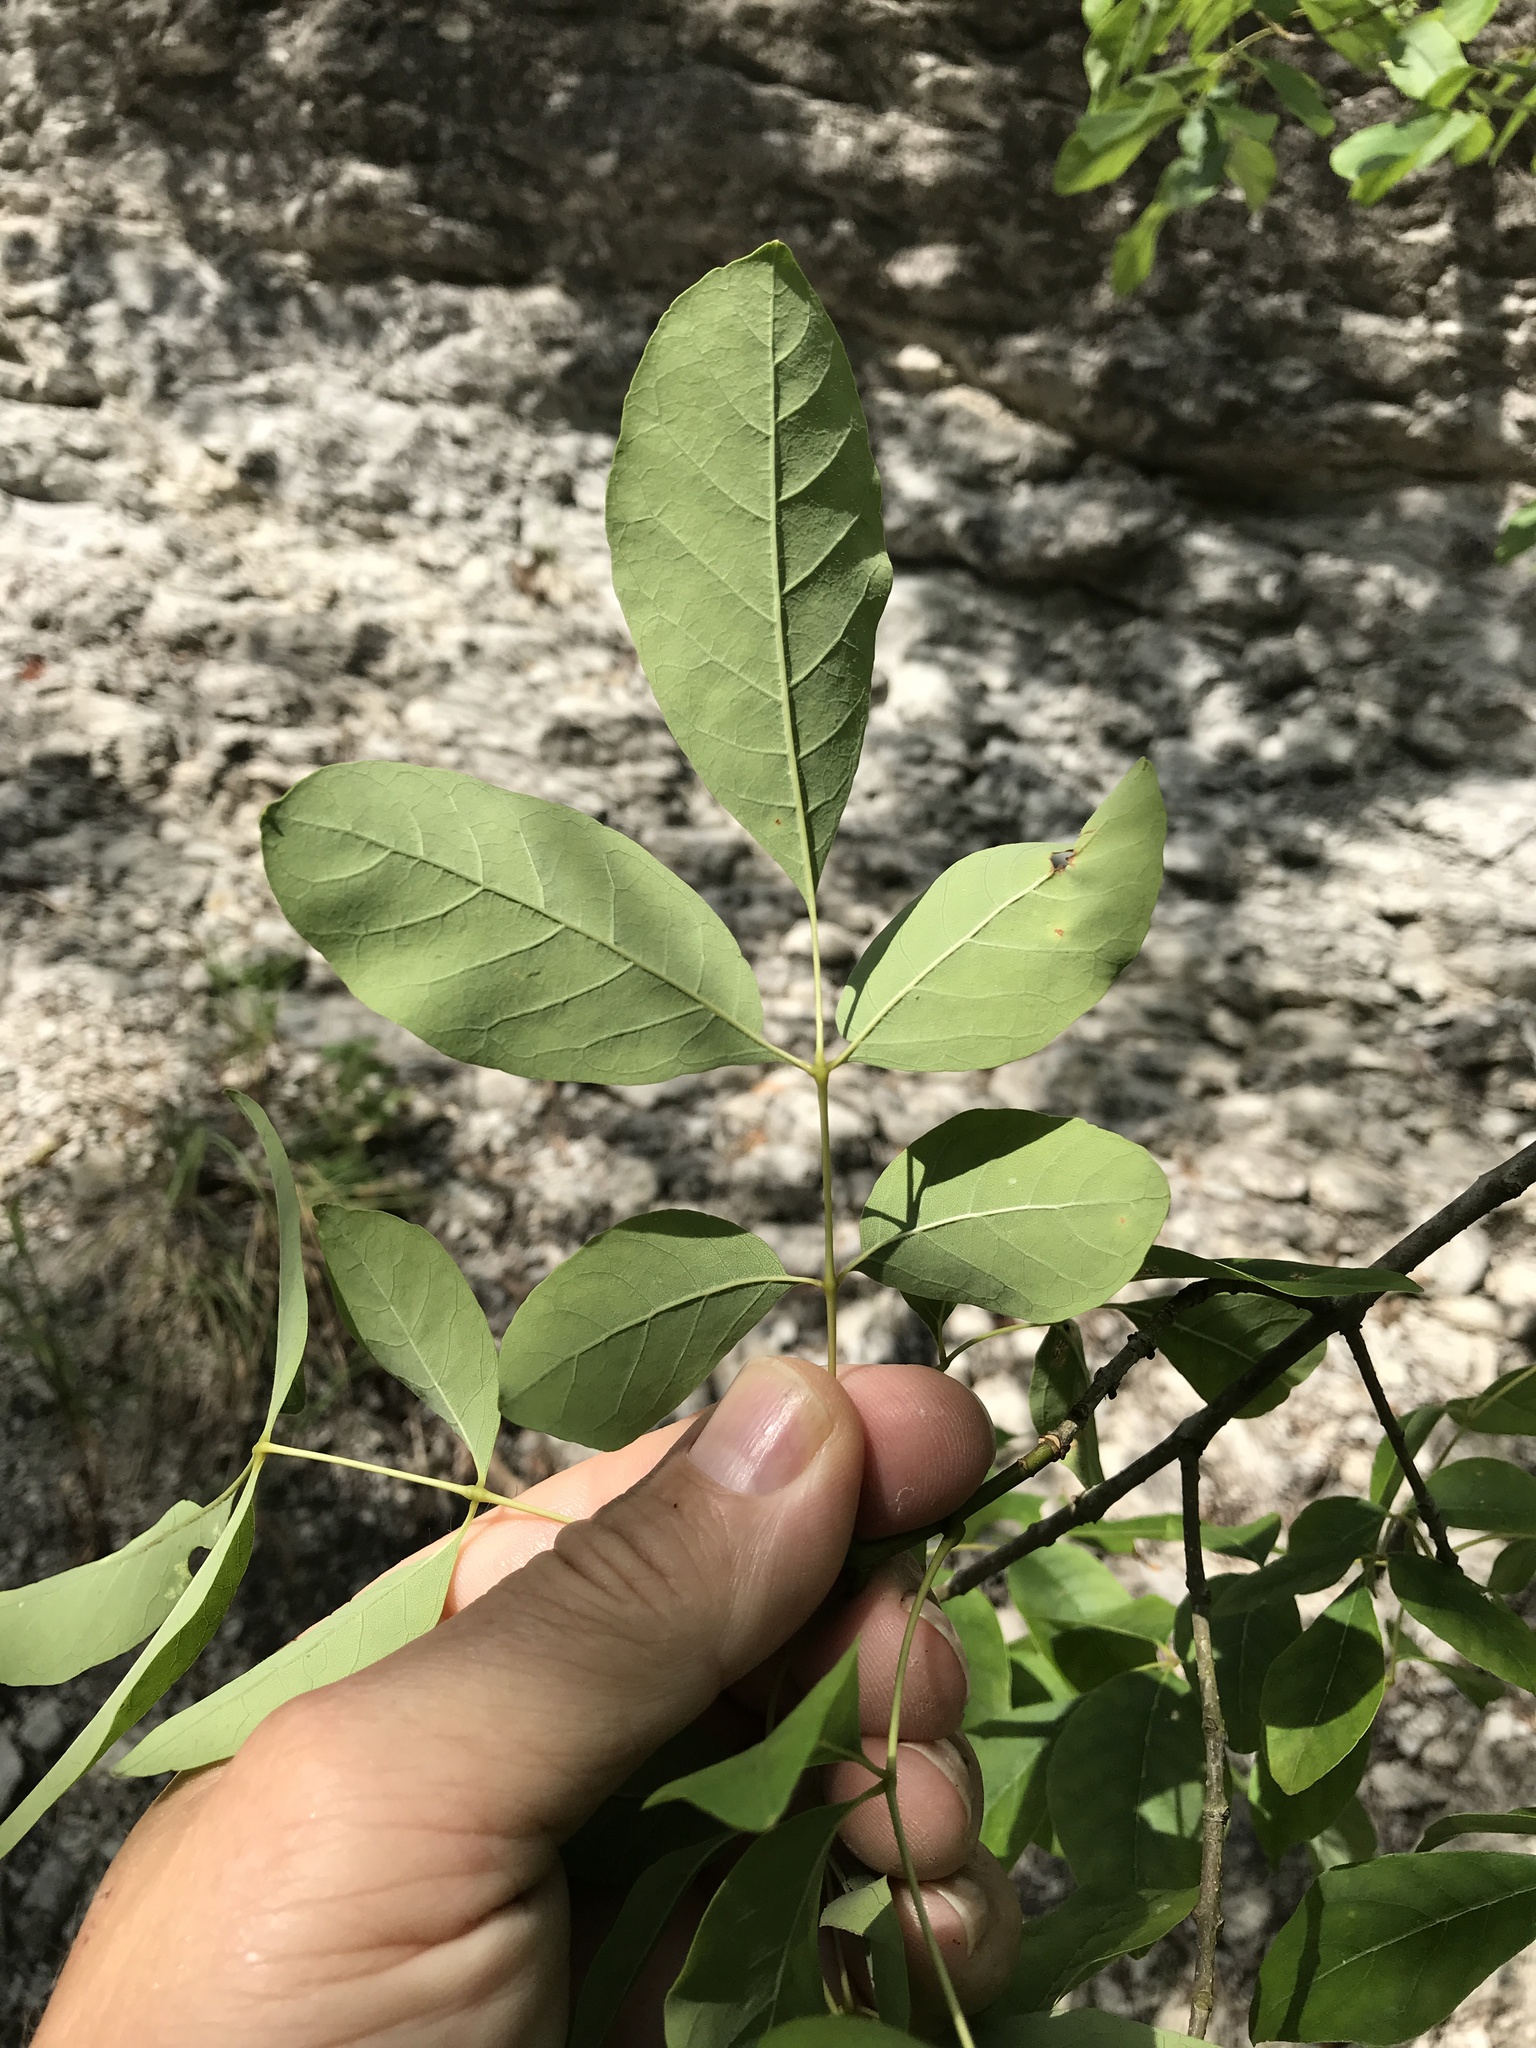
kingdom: Plantae
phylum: Tracheophyta
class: Magnoliopsida
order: Lamiales
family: Oleaceae
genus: Fraxinus
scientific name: Fraxinus albicans
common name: Texas ash
